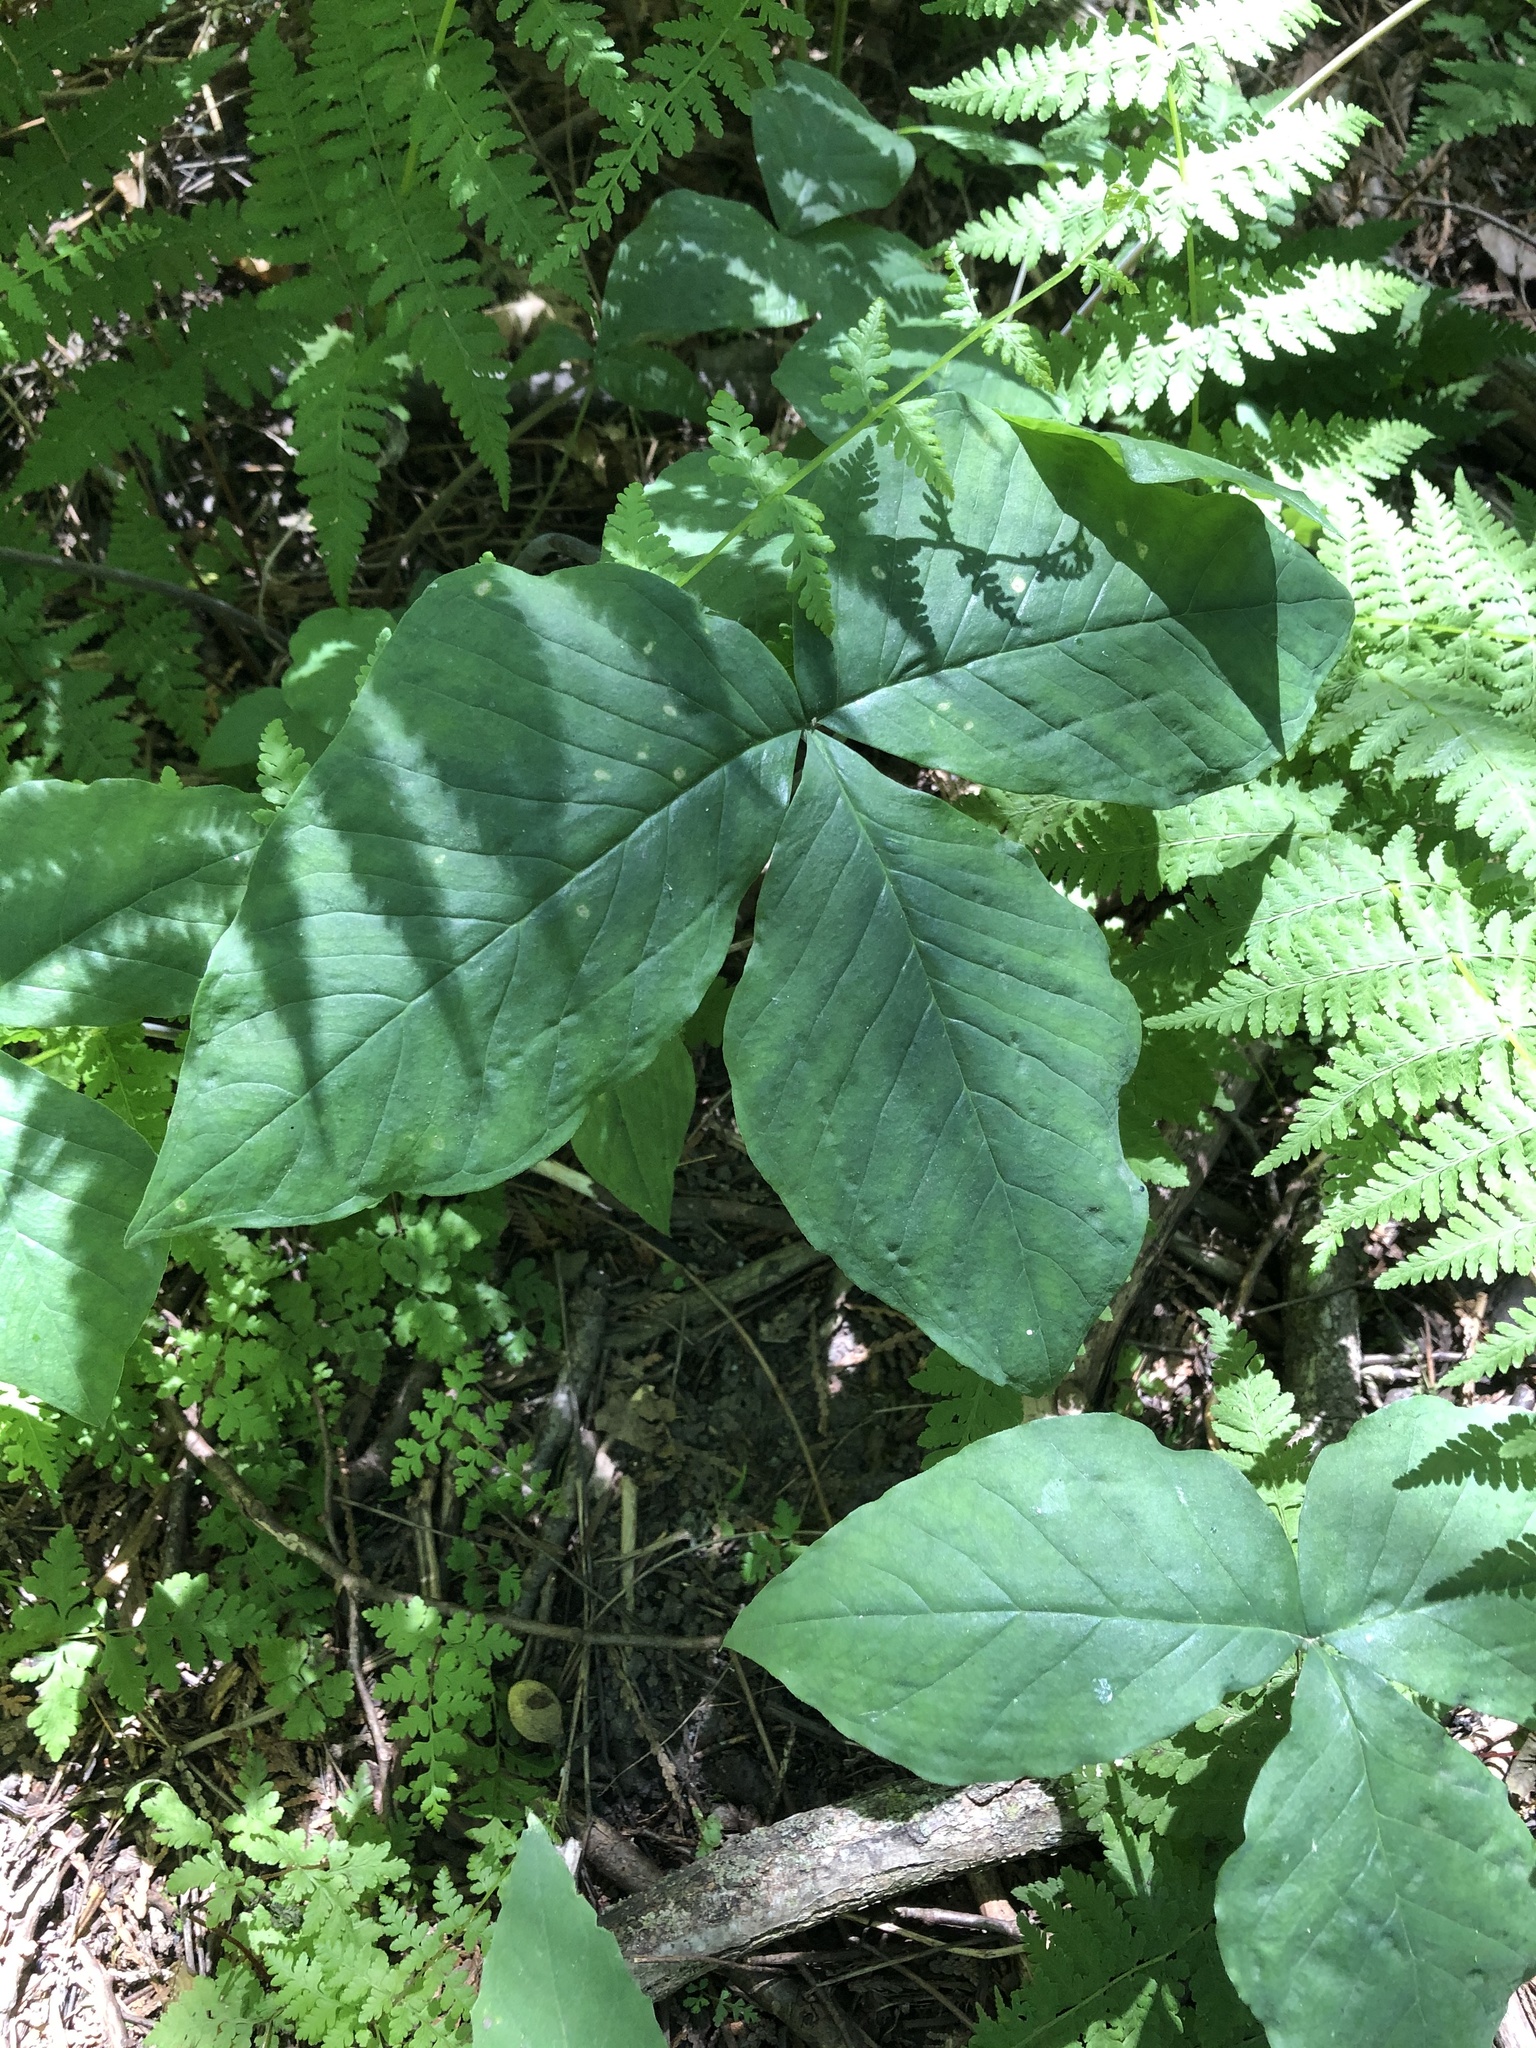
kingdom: Plantae
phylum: Tracheophyta
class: Liliopsida
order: Alismatales
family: Araceae
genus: Arisaema
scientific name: Arisaema triphyllum
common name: Jack-in-the-pulpit
